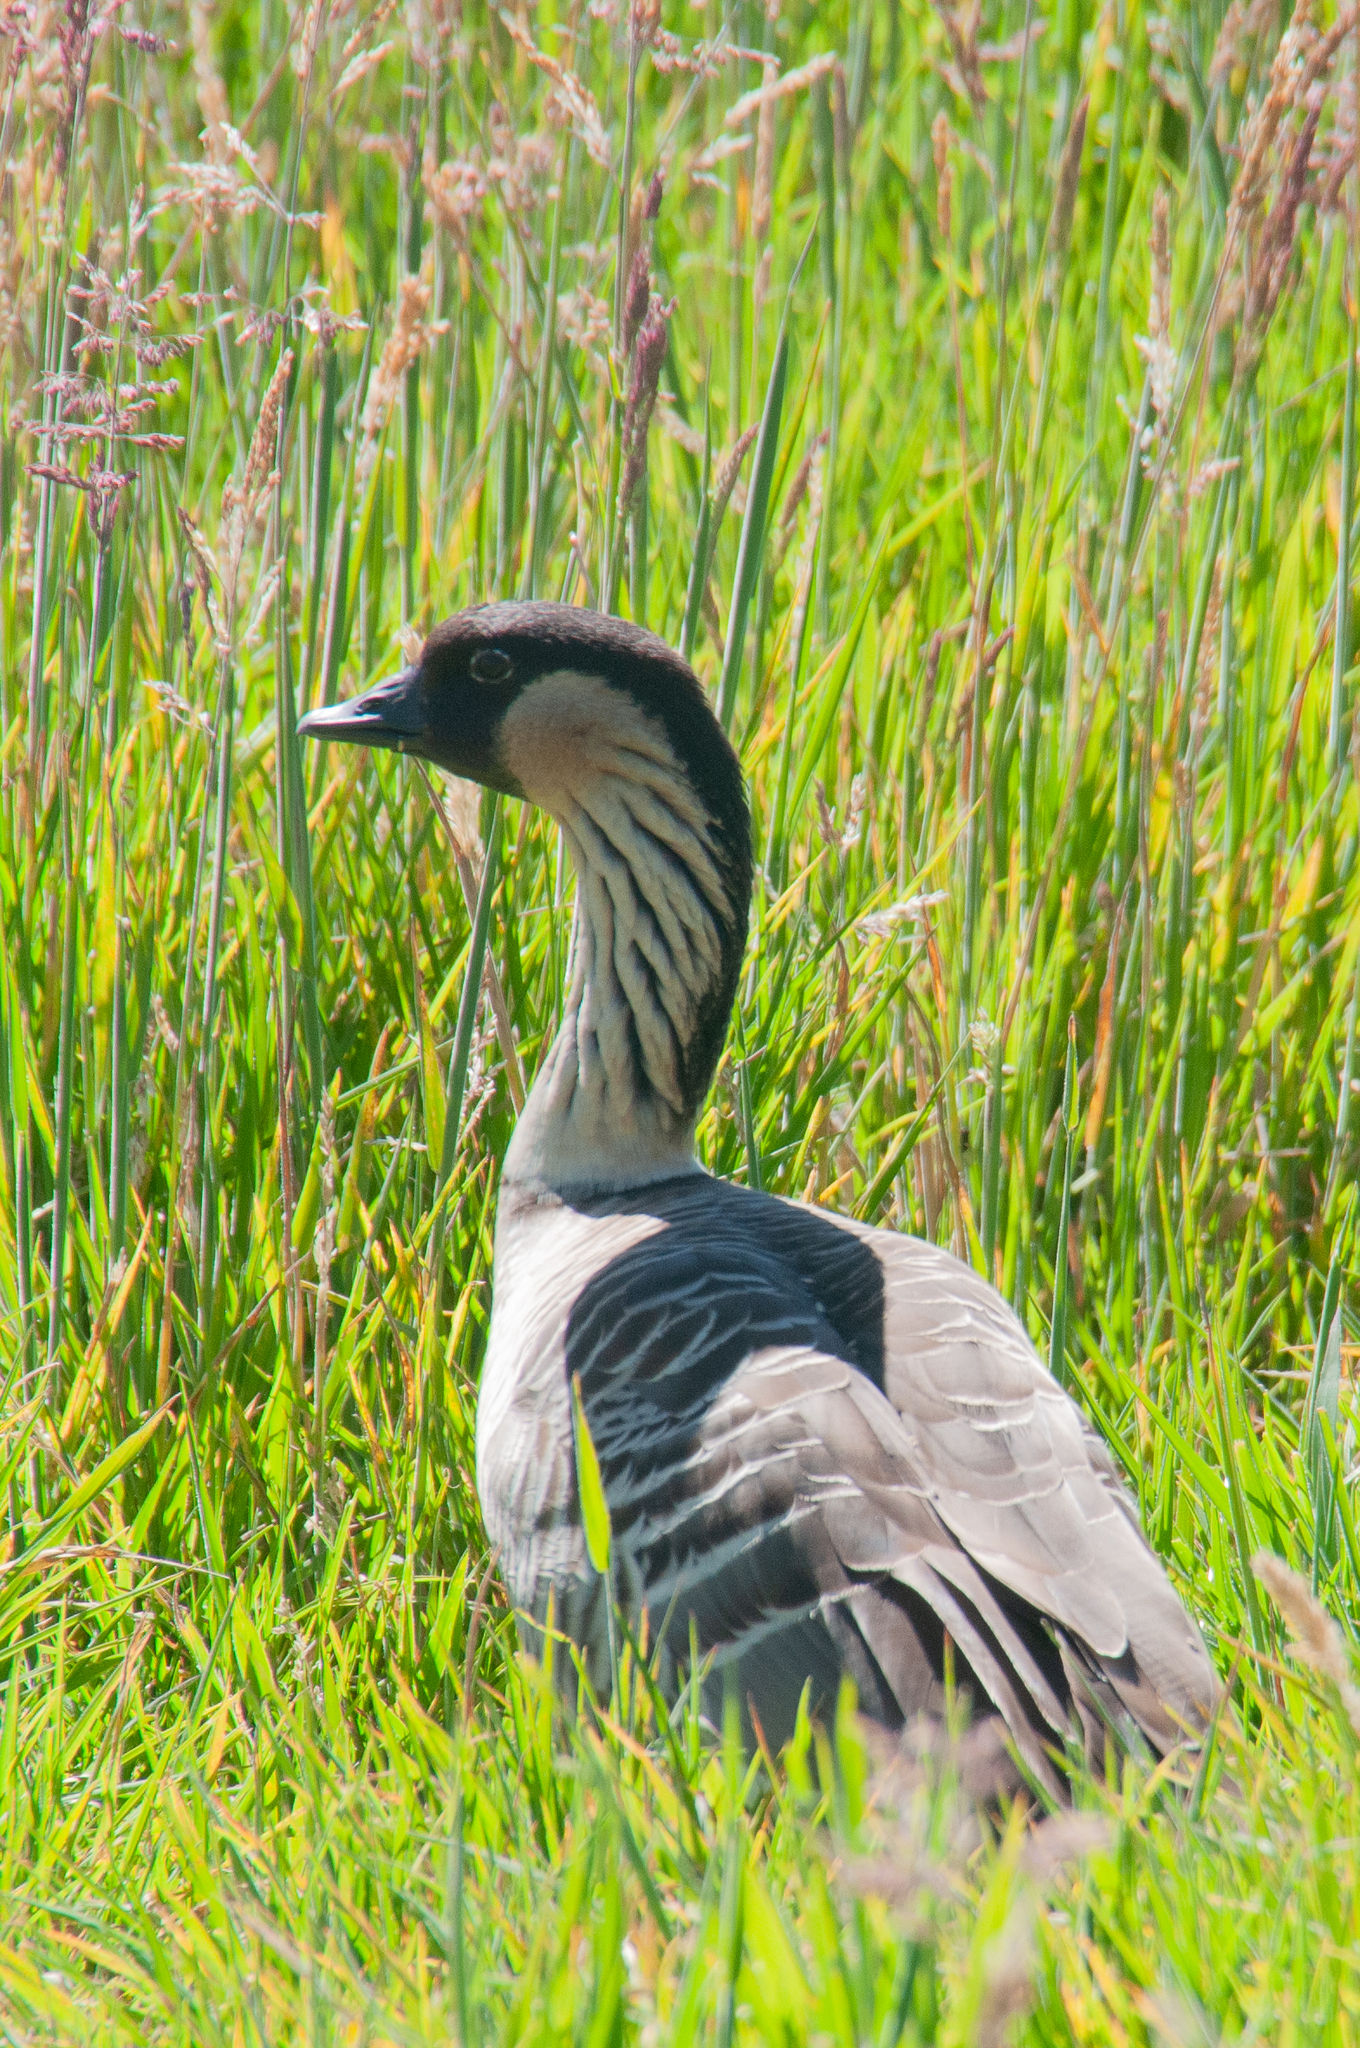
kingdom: Animalia
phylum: Chordata
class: Aves
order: Anseriformes
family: Anatidae
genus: Branta
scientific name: Branta sandvicensis
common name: Nene
